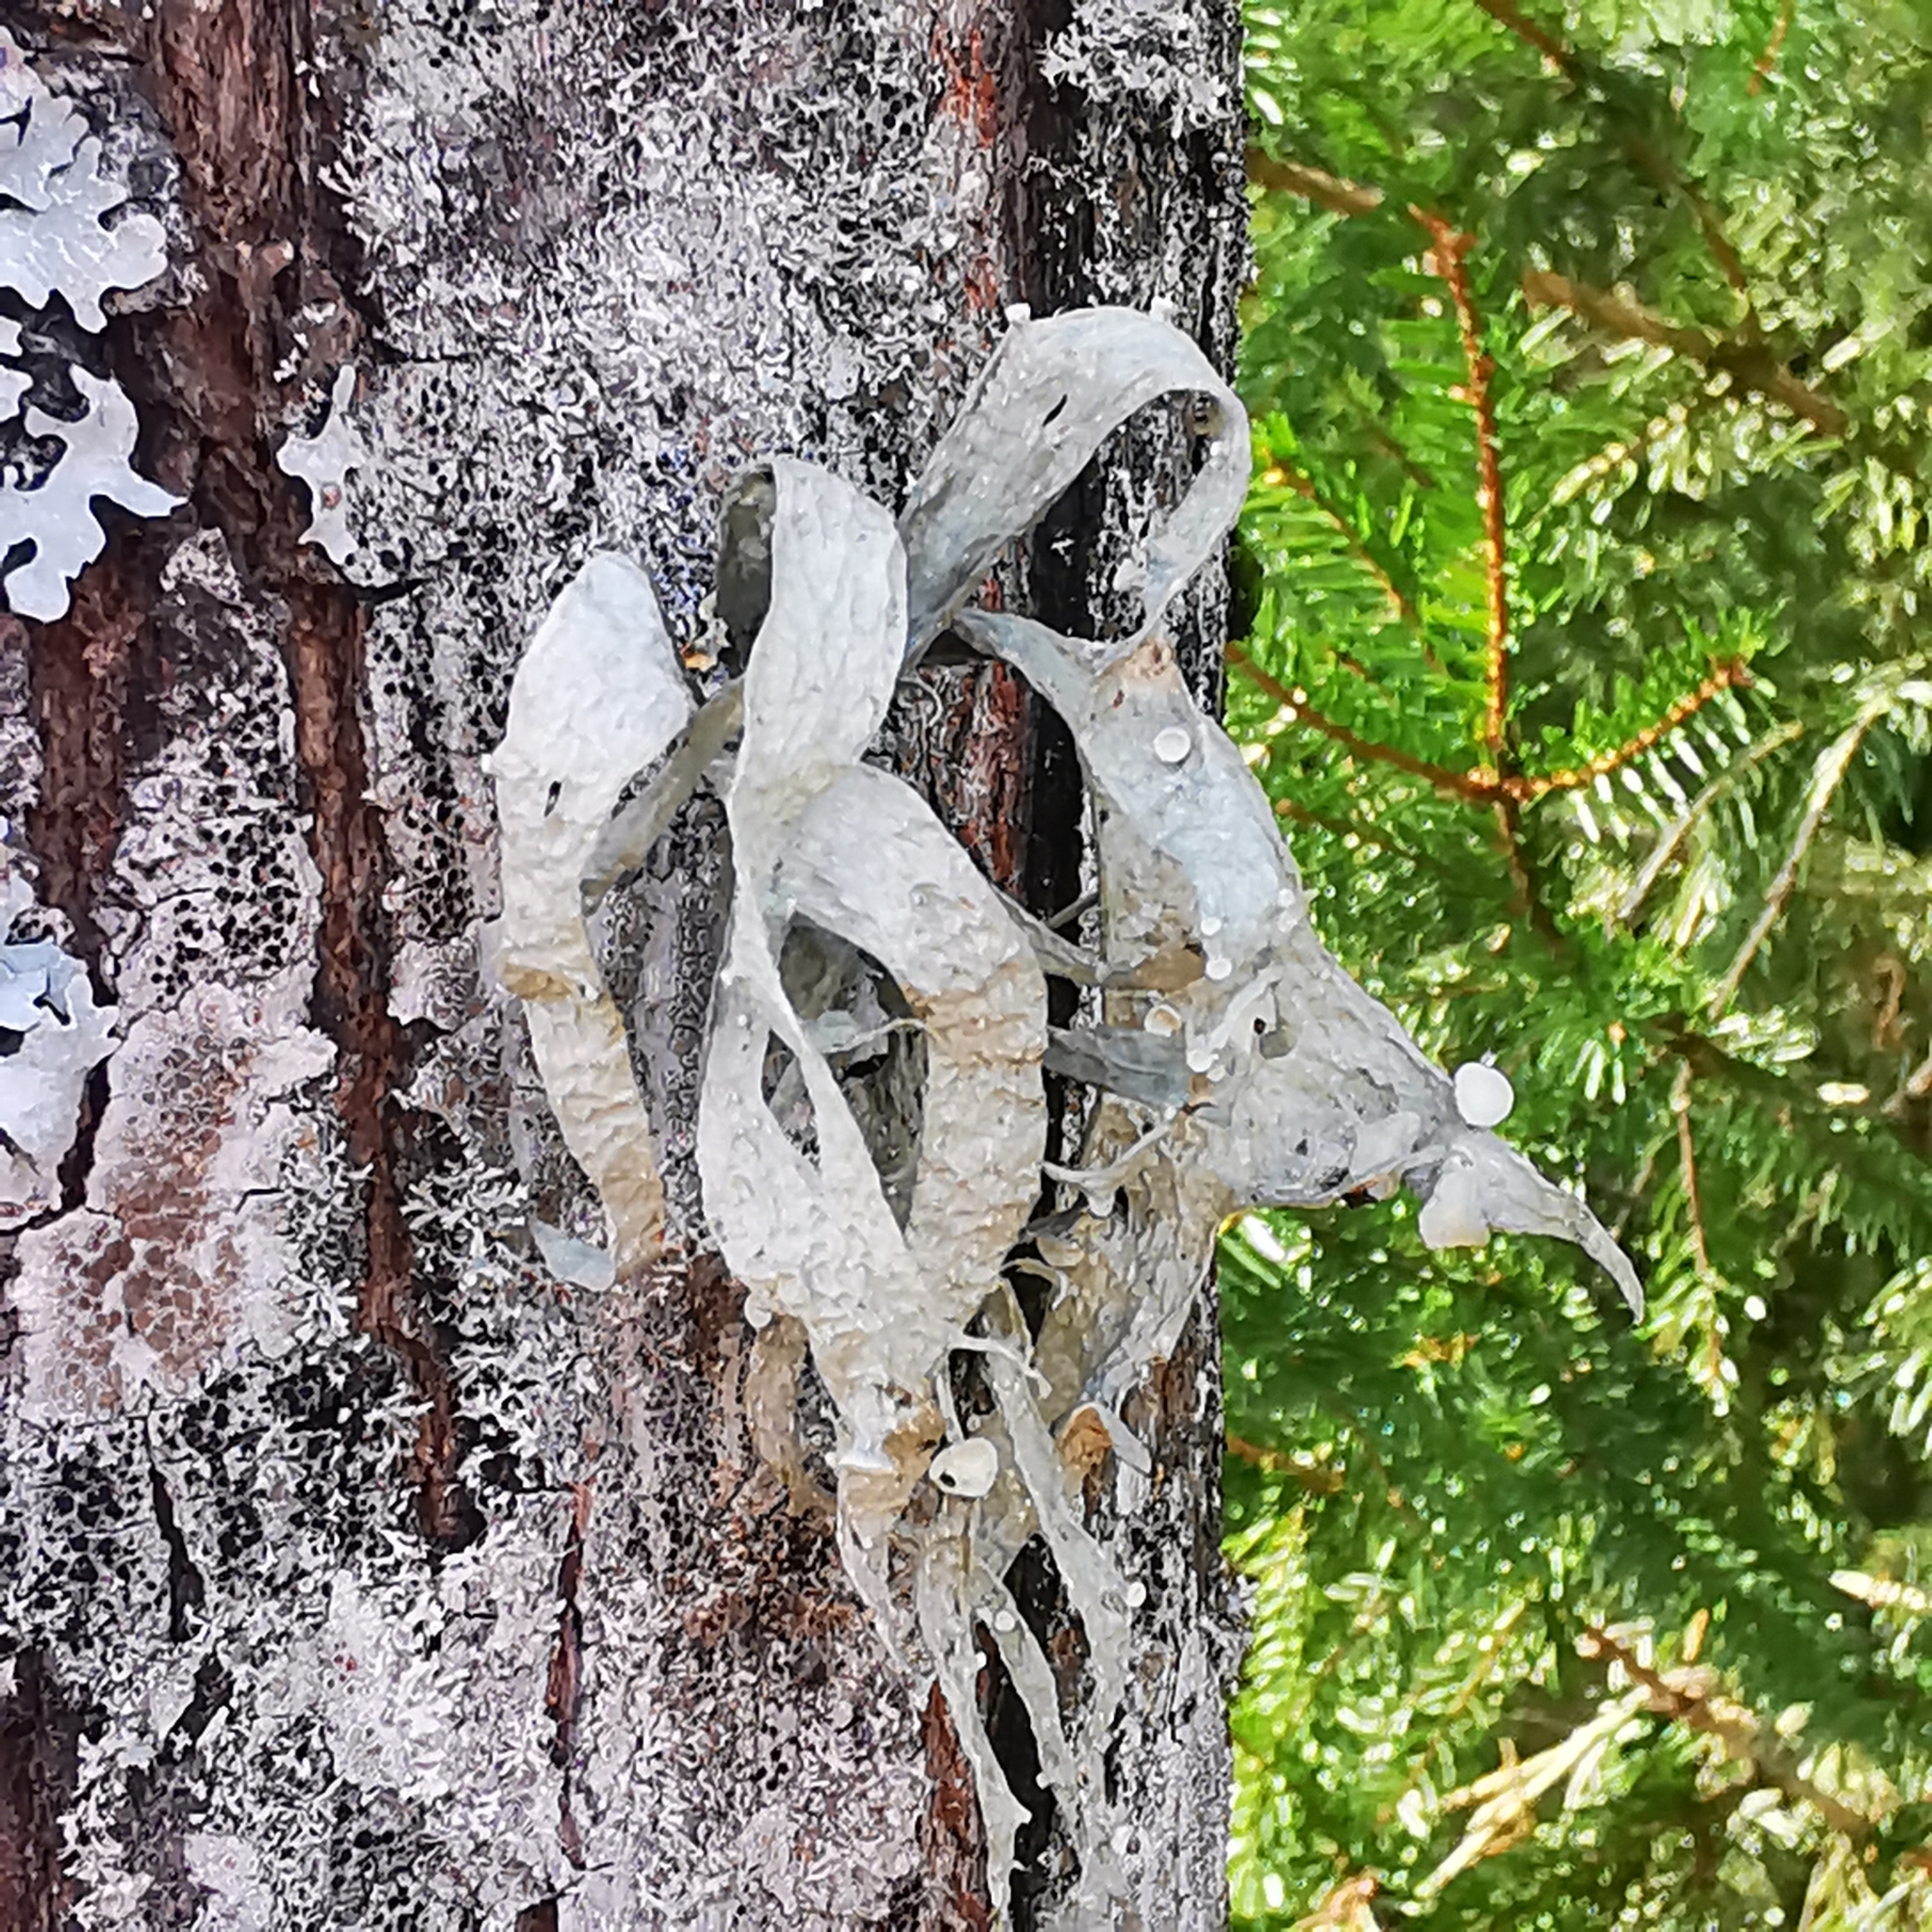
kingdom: Fungi
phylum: Ascomycota
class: Lecanoromycetes
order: Lecanorales
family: Ramalinaceae
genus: Ramalina
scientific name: Ramalina fraxinea
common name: Cartilage lichen
